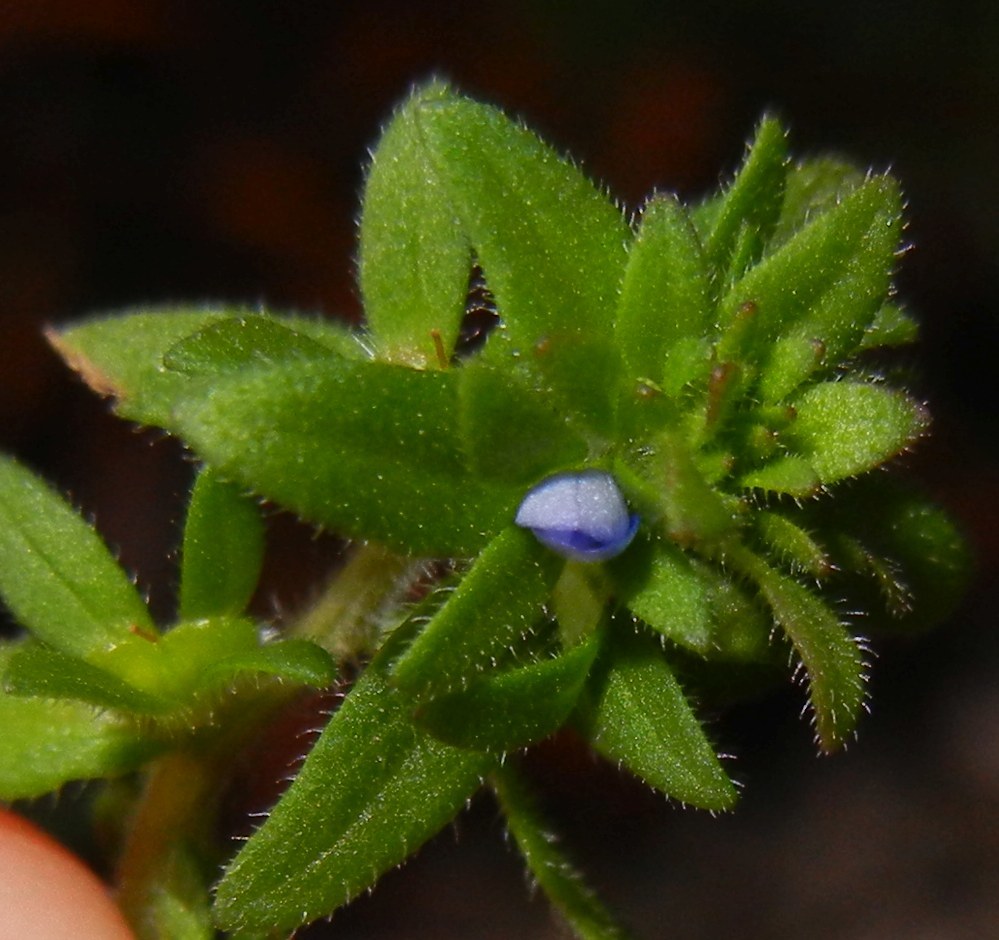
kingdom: Plantae
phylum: Tracheophyta
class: Magnoliopsida
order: Lamiales
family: Plantaginaceae
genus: Veronica
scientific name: Veronica arvensis
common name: Corn speedwell
